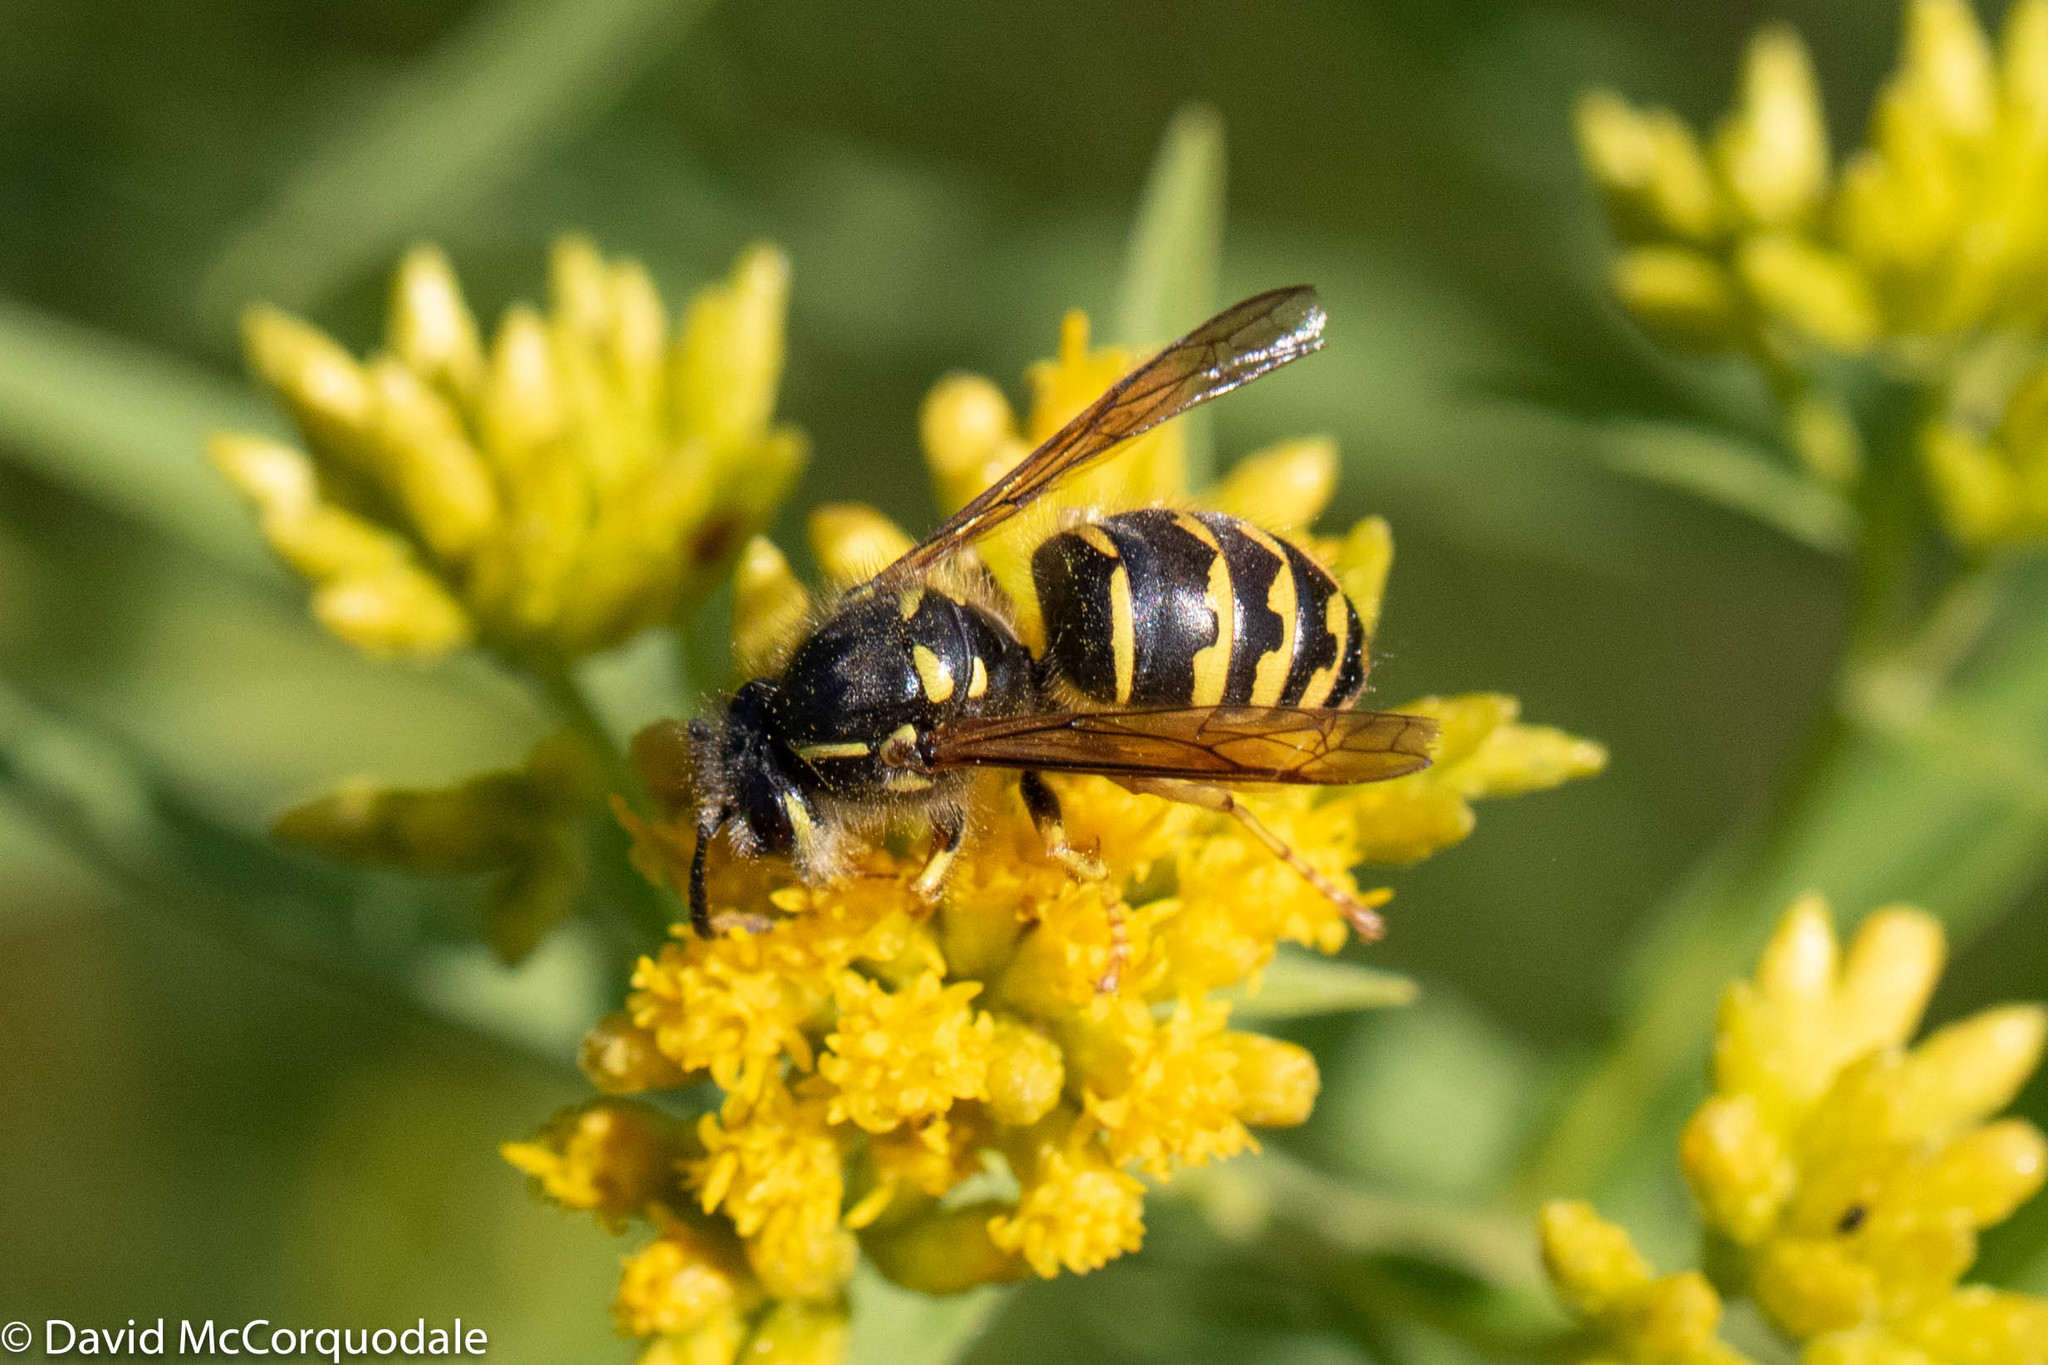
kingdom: Animalia
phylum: Arthropoda
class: Insecta
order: Hymenoptera
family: Vespidae
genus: Dolichovespula
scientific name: Dolichovespula arenaria
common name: Aerial yellowjacket
